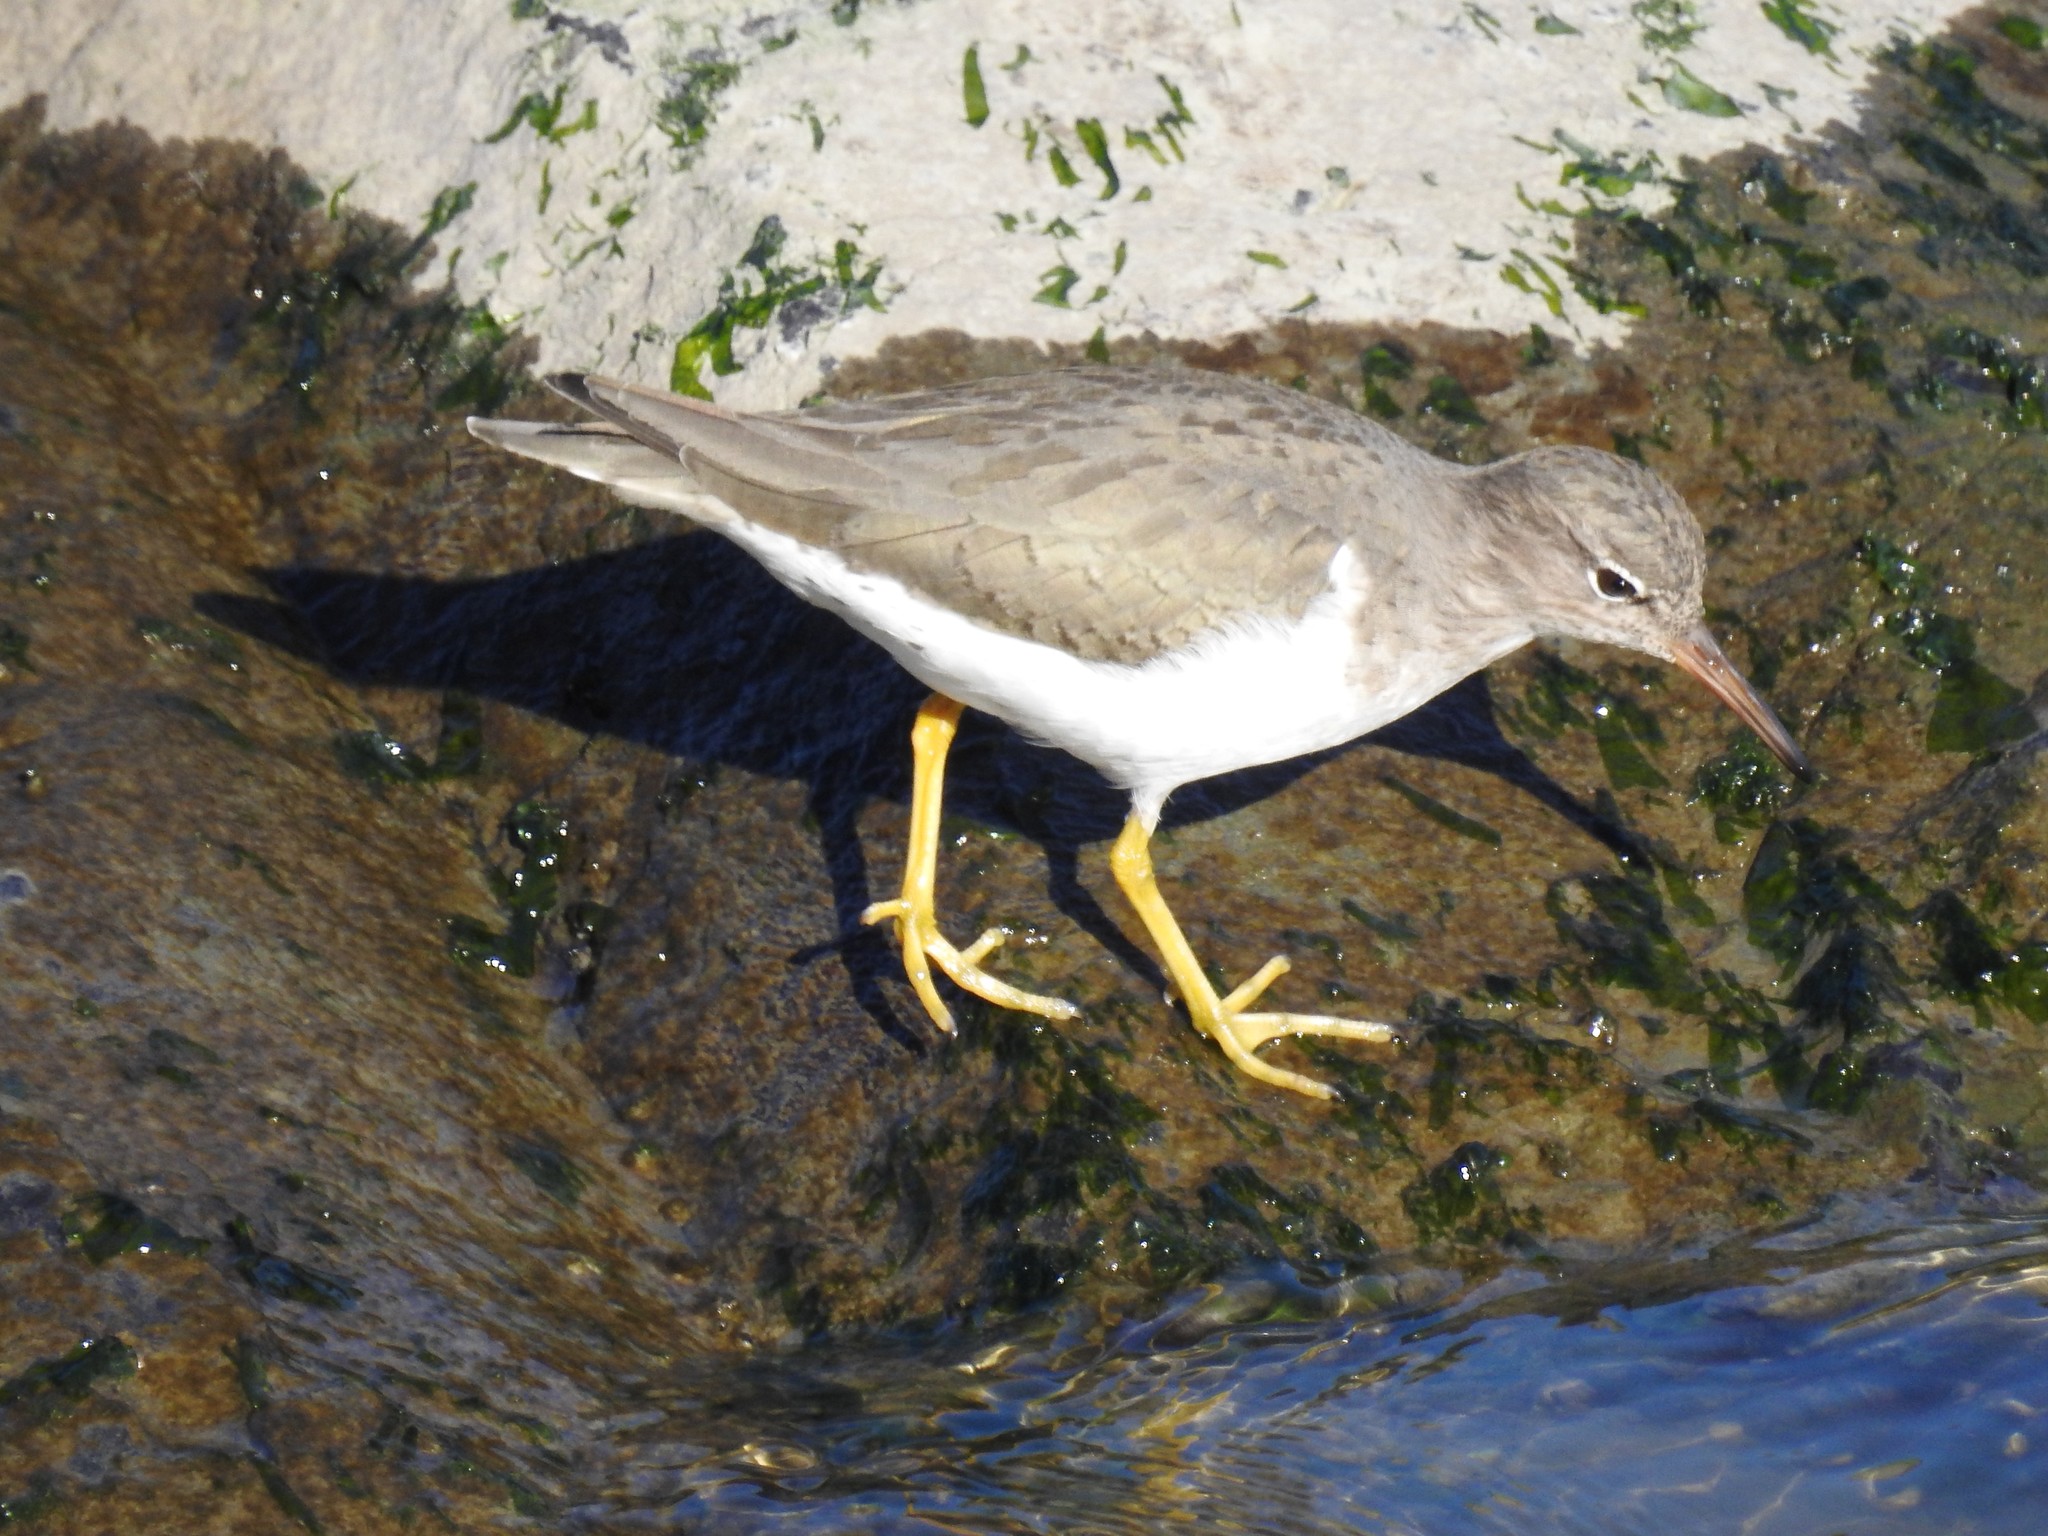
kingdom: Animalia
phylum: Chordata
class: Aves
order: Charadriiformes
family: Scolopacidae
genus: Actitis
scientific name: Actitis macularius
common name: Spotted sandpiper
